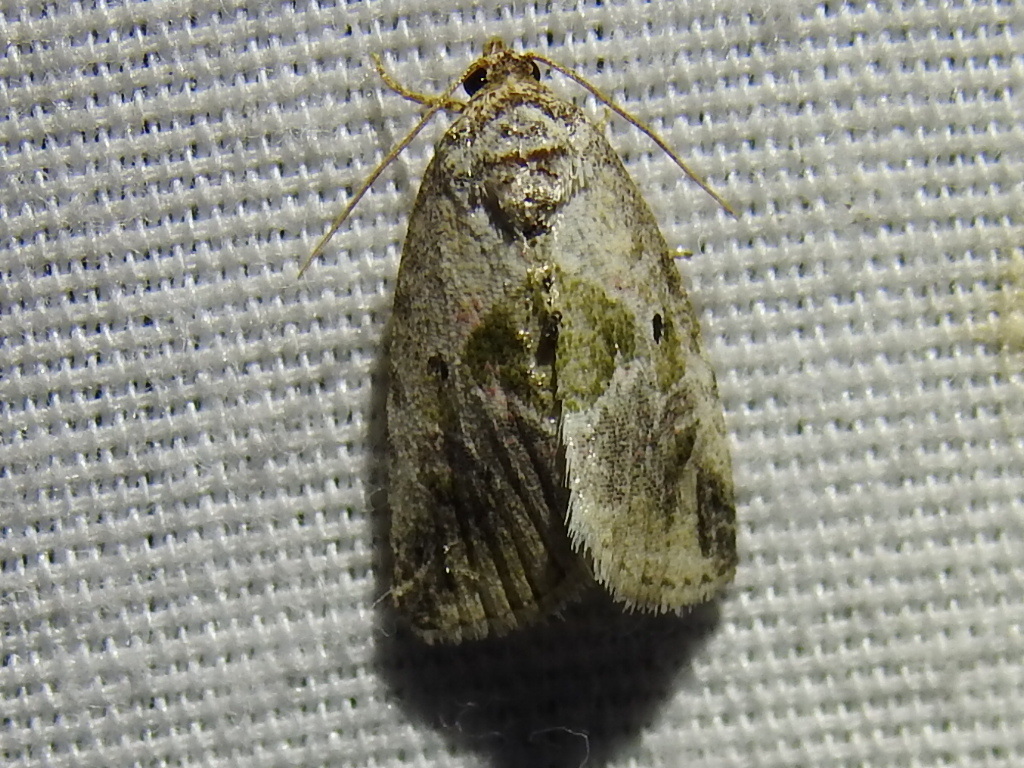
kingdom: Animalia
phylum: Arthropoda
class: Insecta
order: Lepidoptera
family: Noctuidae
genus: Maliattha
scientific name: Maliattha synochitis
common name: Black-dotted glyph
